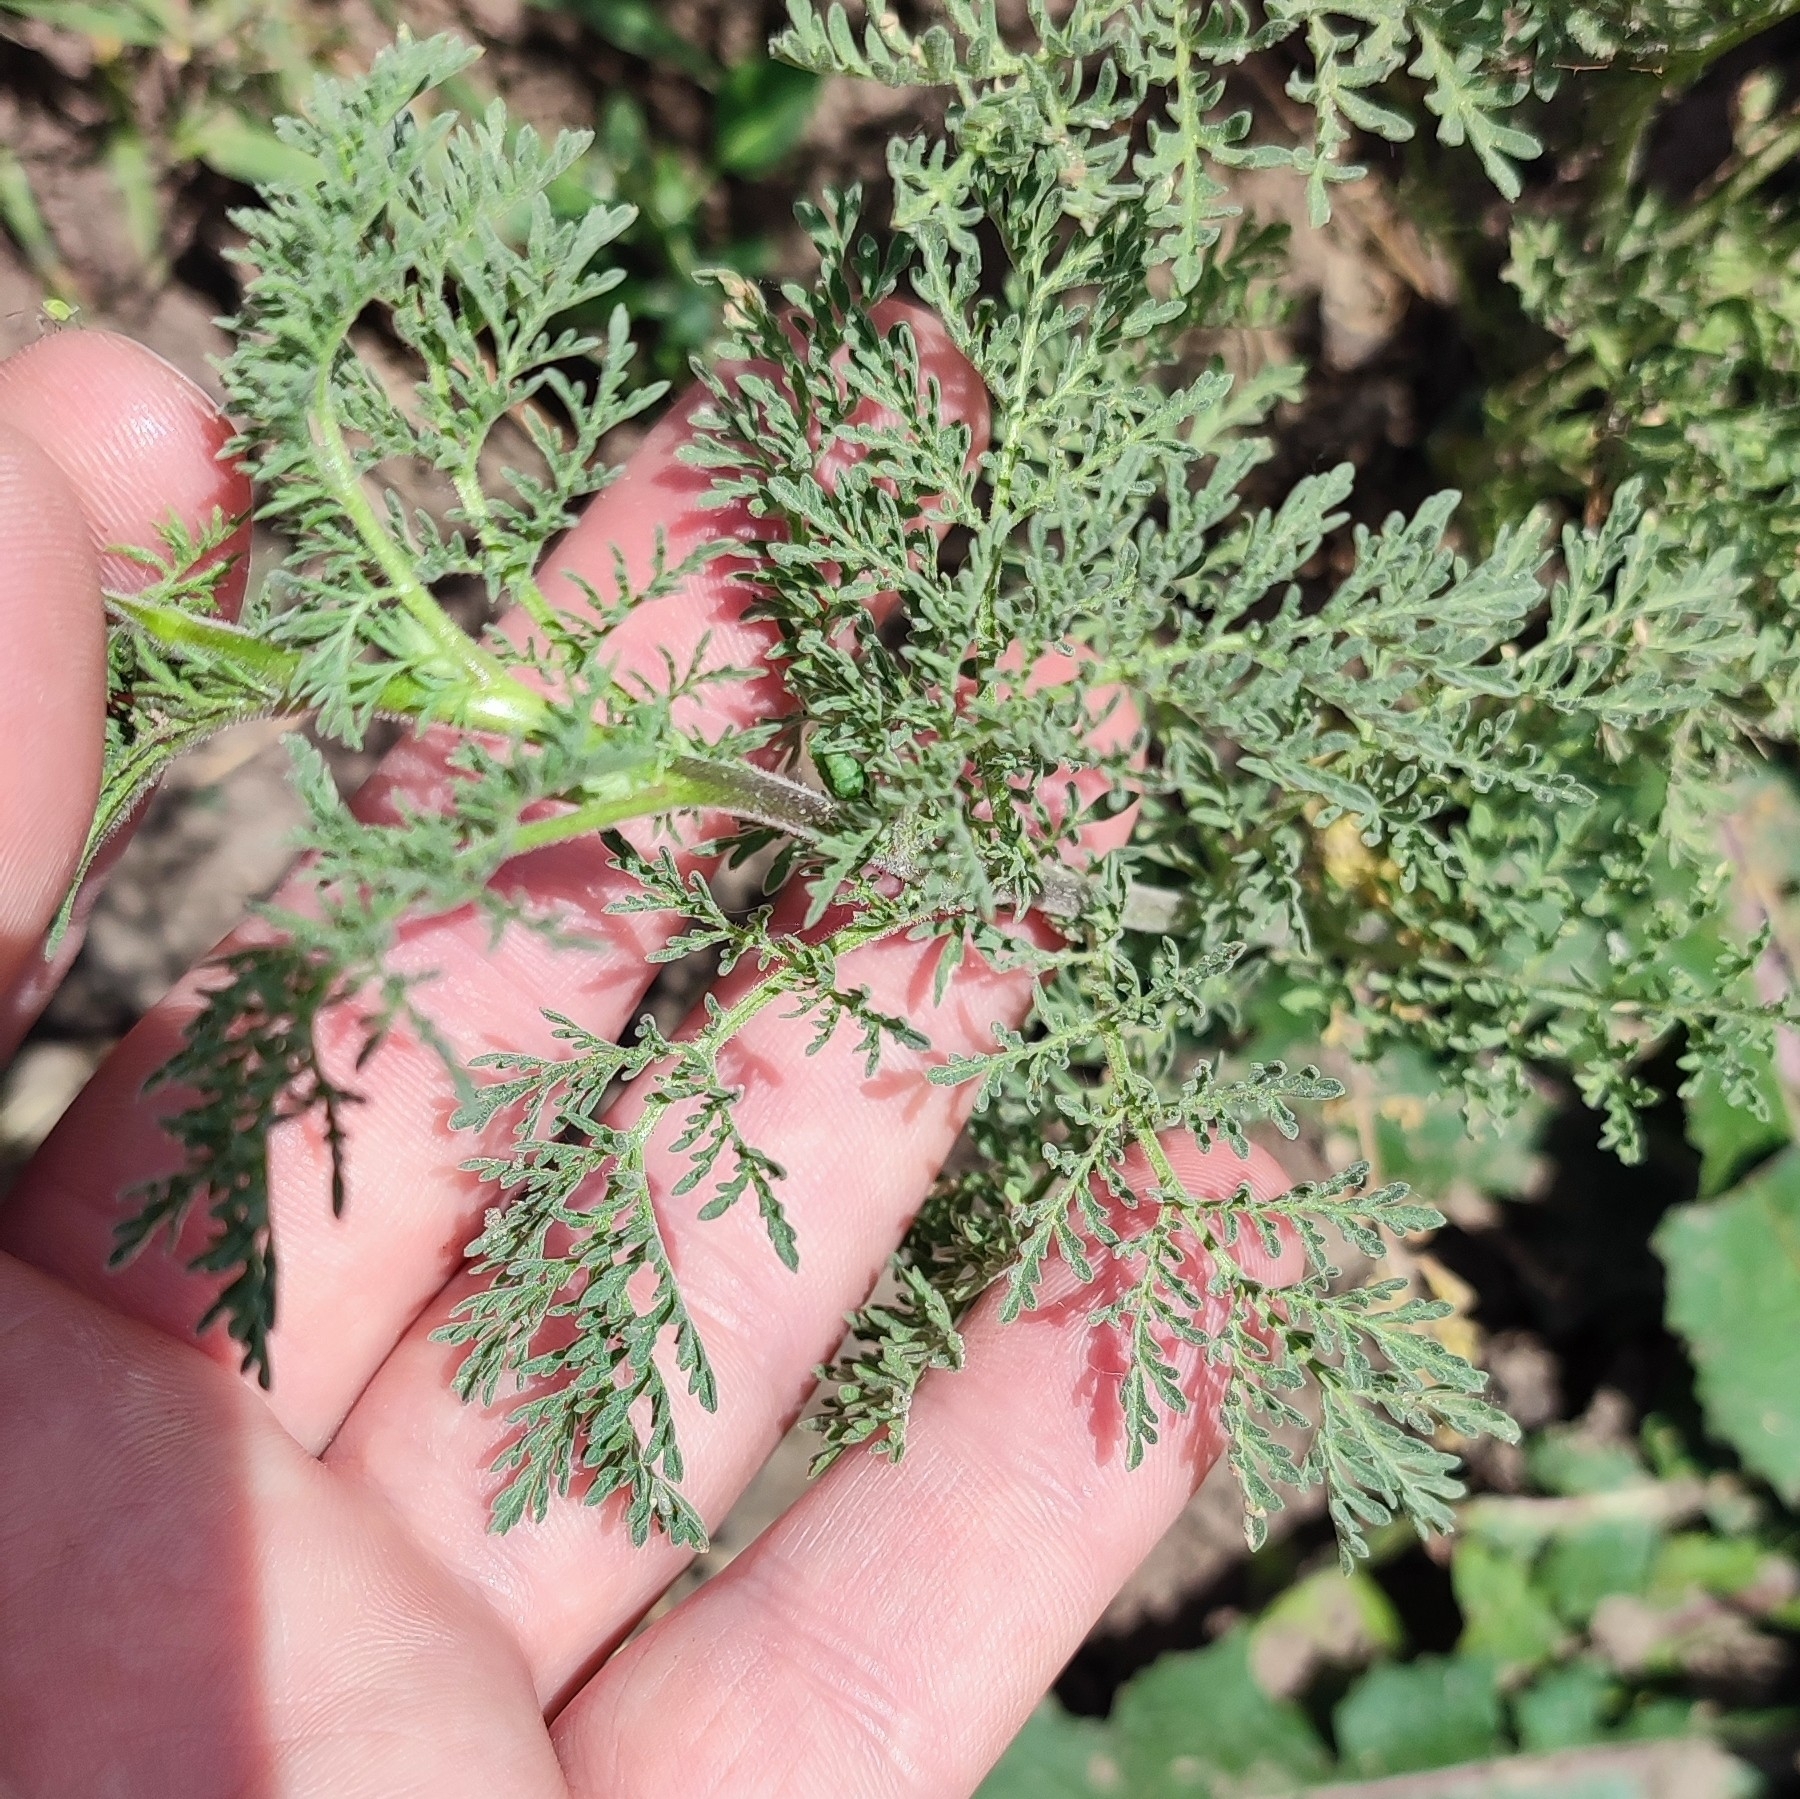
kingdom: Plantae
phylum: Tracheophyta
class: Magnoliopsida
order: Brassicales
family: Brassicaceae
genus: Descurainia
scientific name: Descurainia sophia
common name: Flixweed
